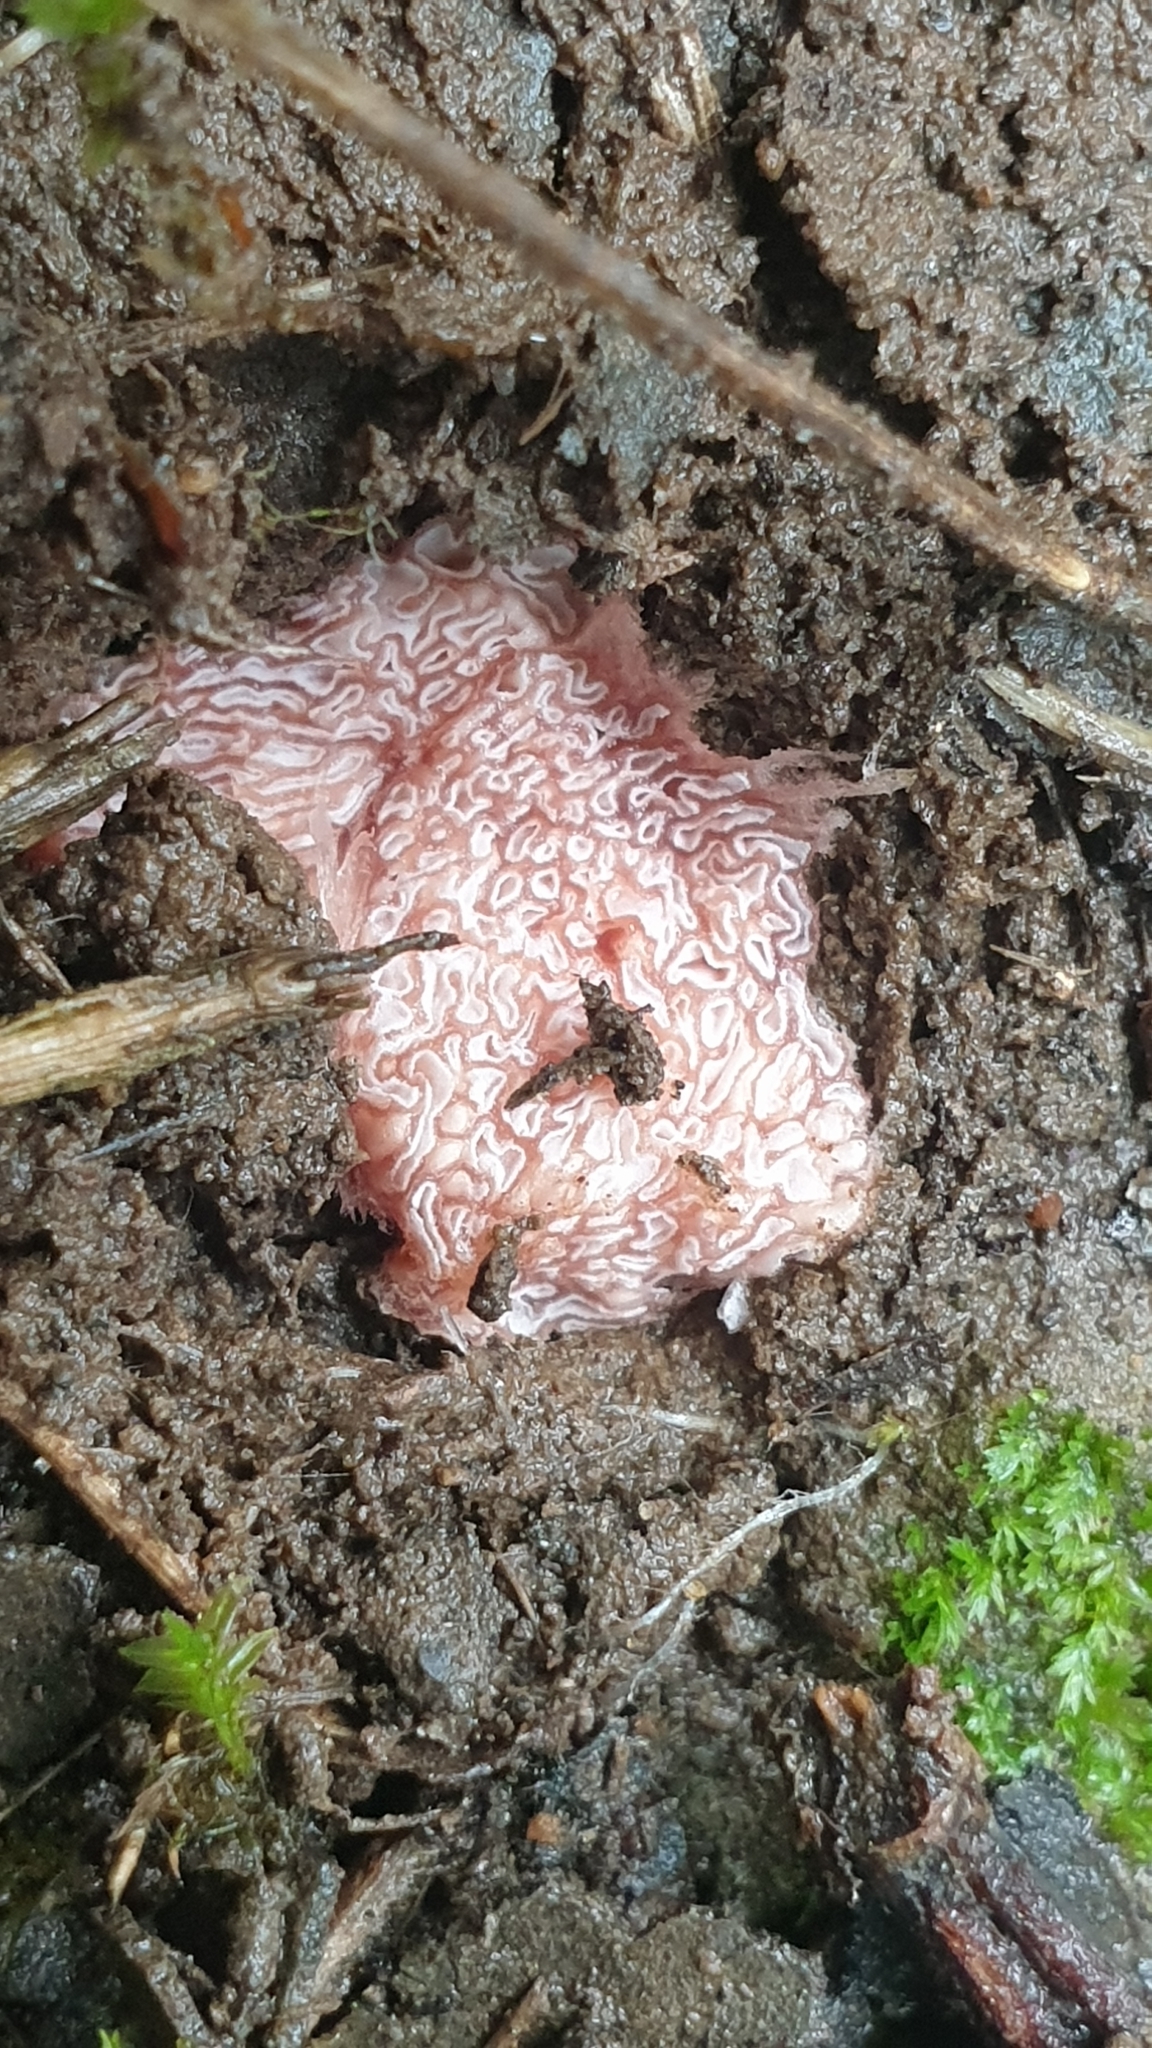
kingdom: Fungi
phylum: Basidiomycota
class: Agaricomycetes
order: Agaricales
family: Hydnangiaceae
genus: Hydnangium
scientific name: Hydnangium carneum
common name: Flesh-pink truffle
